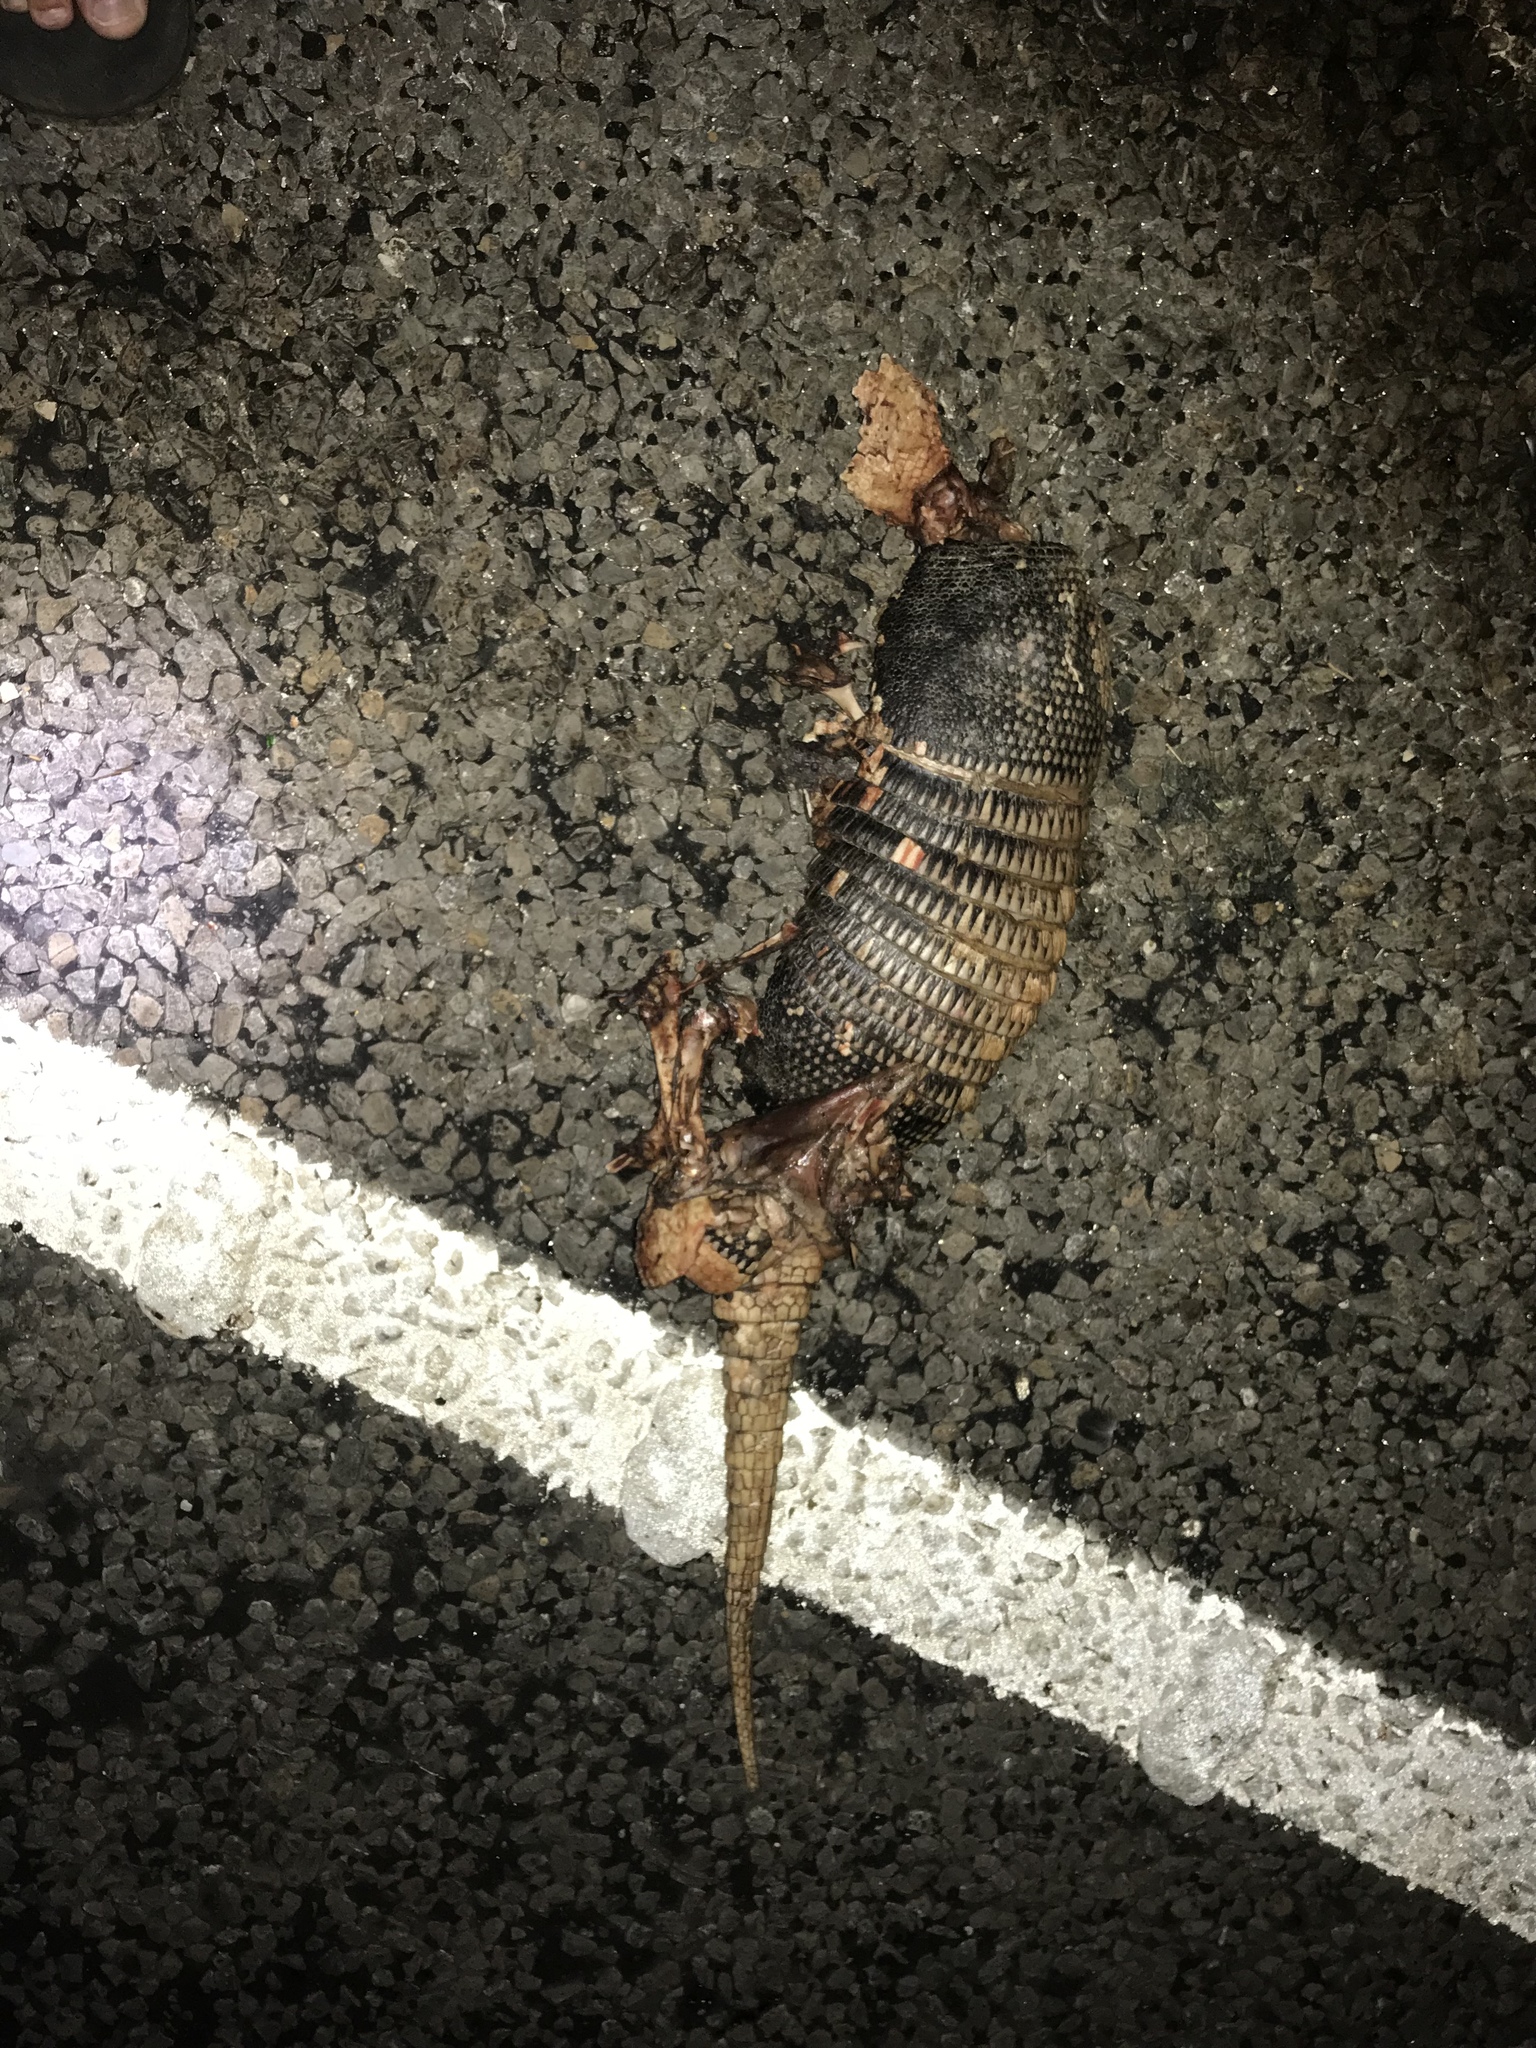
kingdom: Animalia
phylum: Chordata
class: Mammalia
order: Cingulata
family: Dasypodidae
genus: Dasypus
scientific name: Dasypus novemcinctus
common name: Nine-banded armadillo
